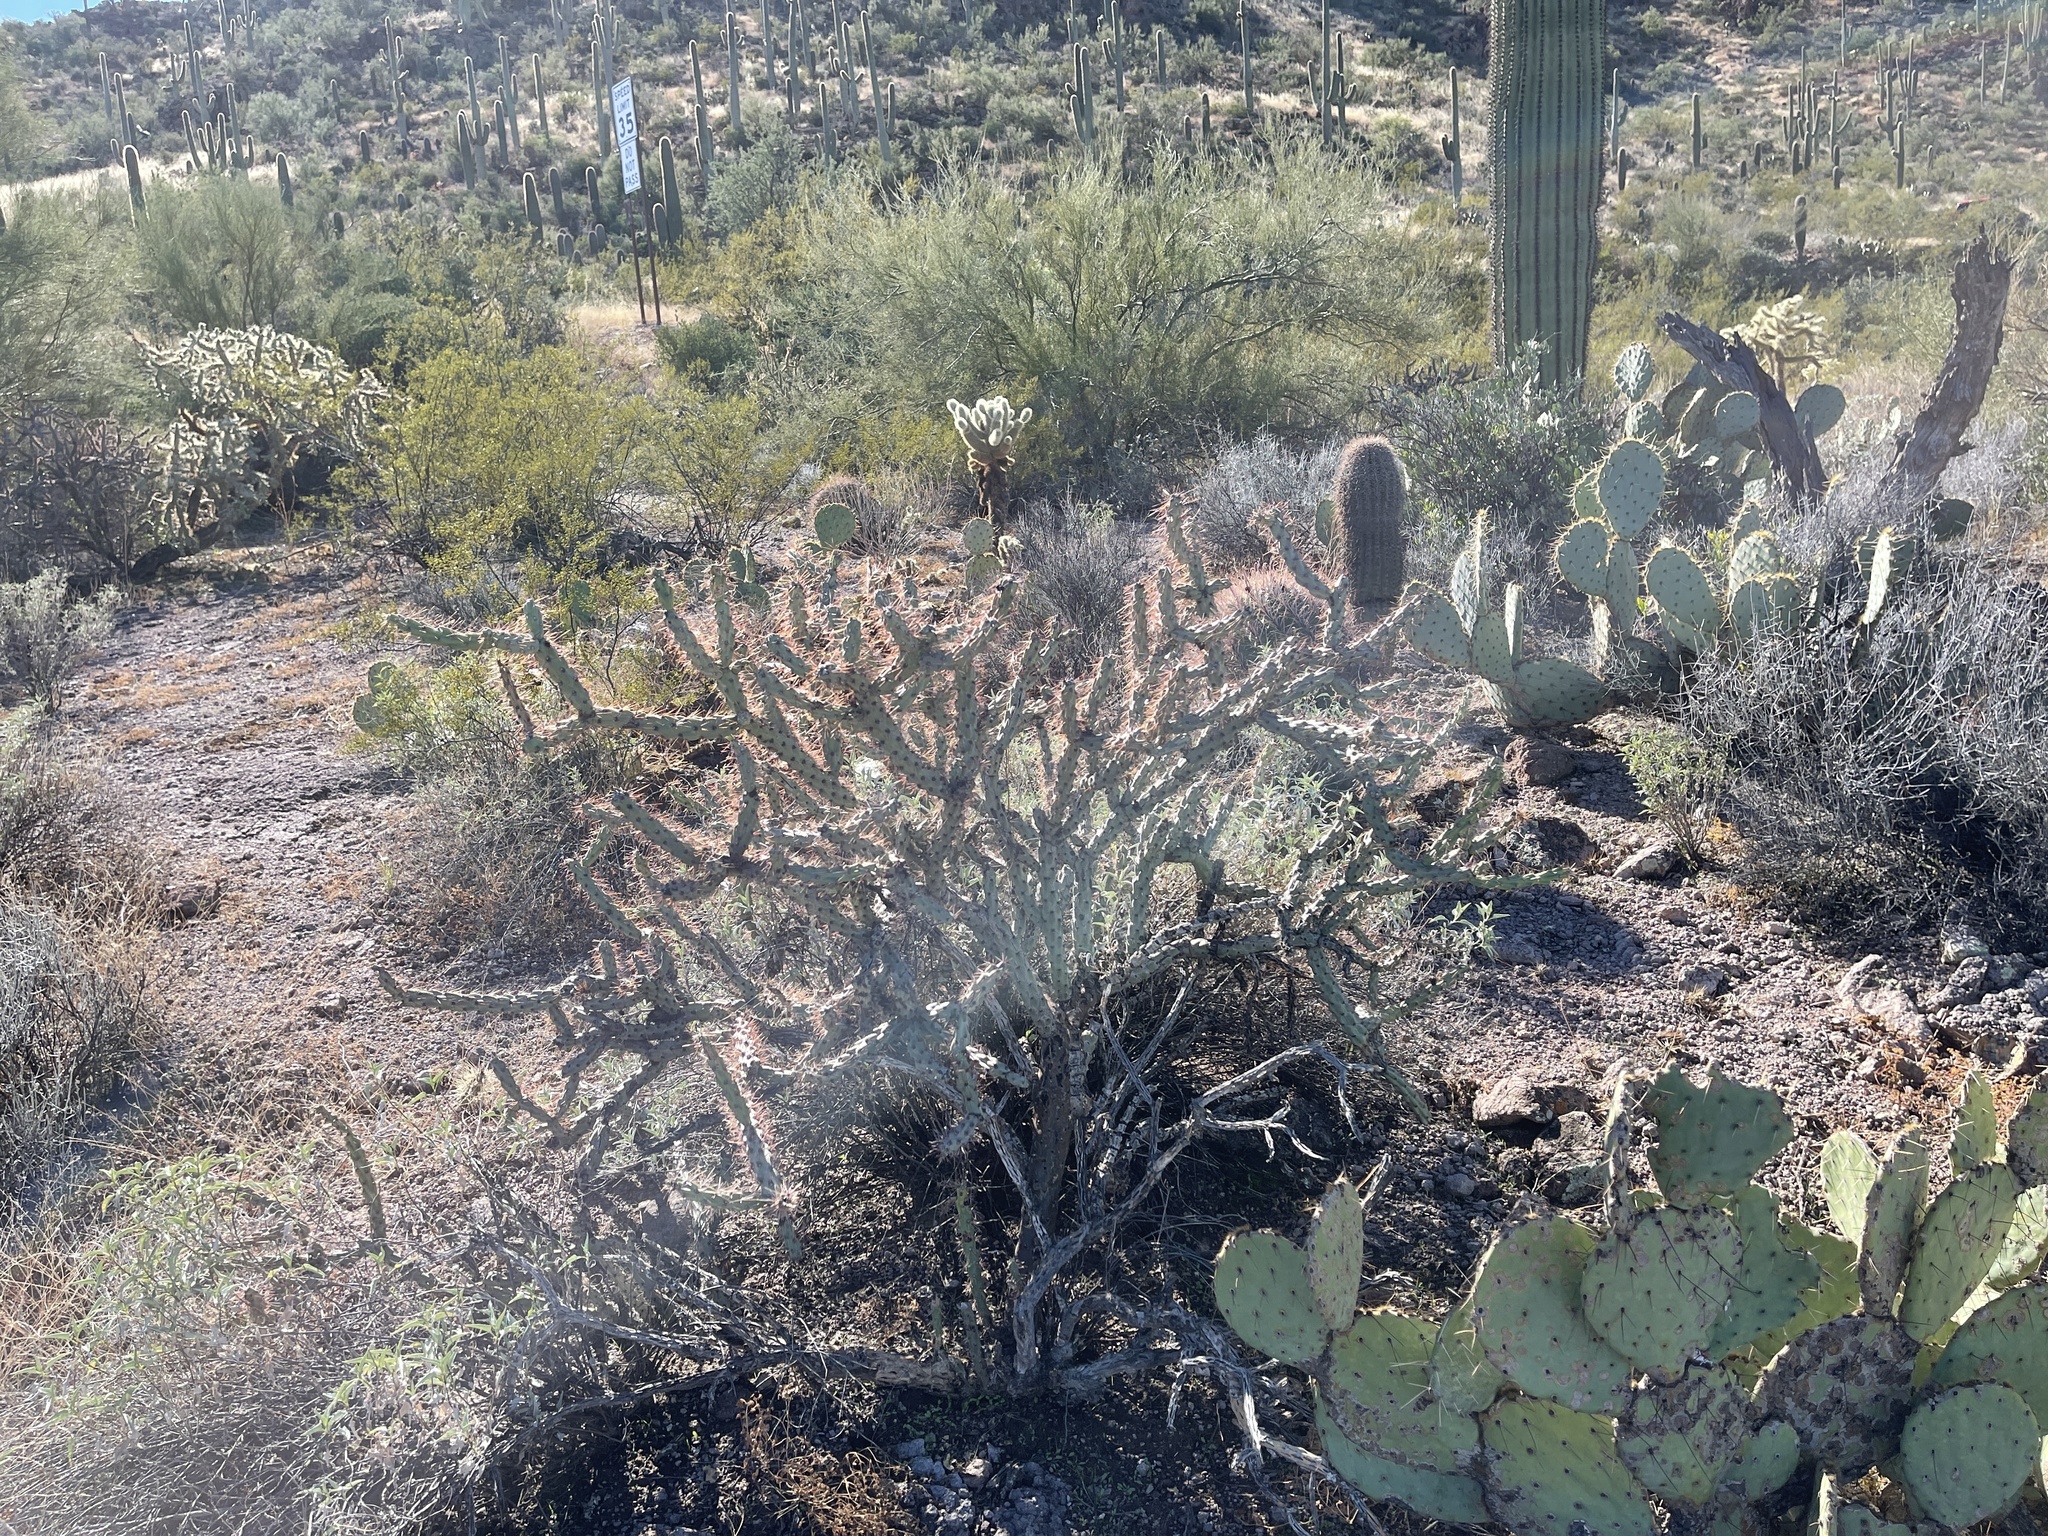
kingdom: Plantae
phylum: Tracheophyta
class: Magnoliopsida
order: Caryophyllales
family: Cactaceae
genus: Cylindropuntia
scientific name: Cylindropuntia acanthocarpa
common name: Buckhorn cholla
